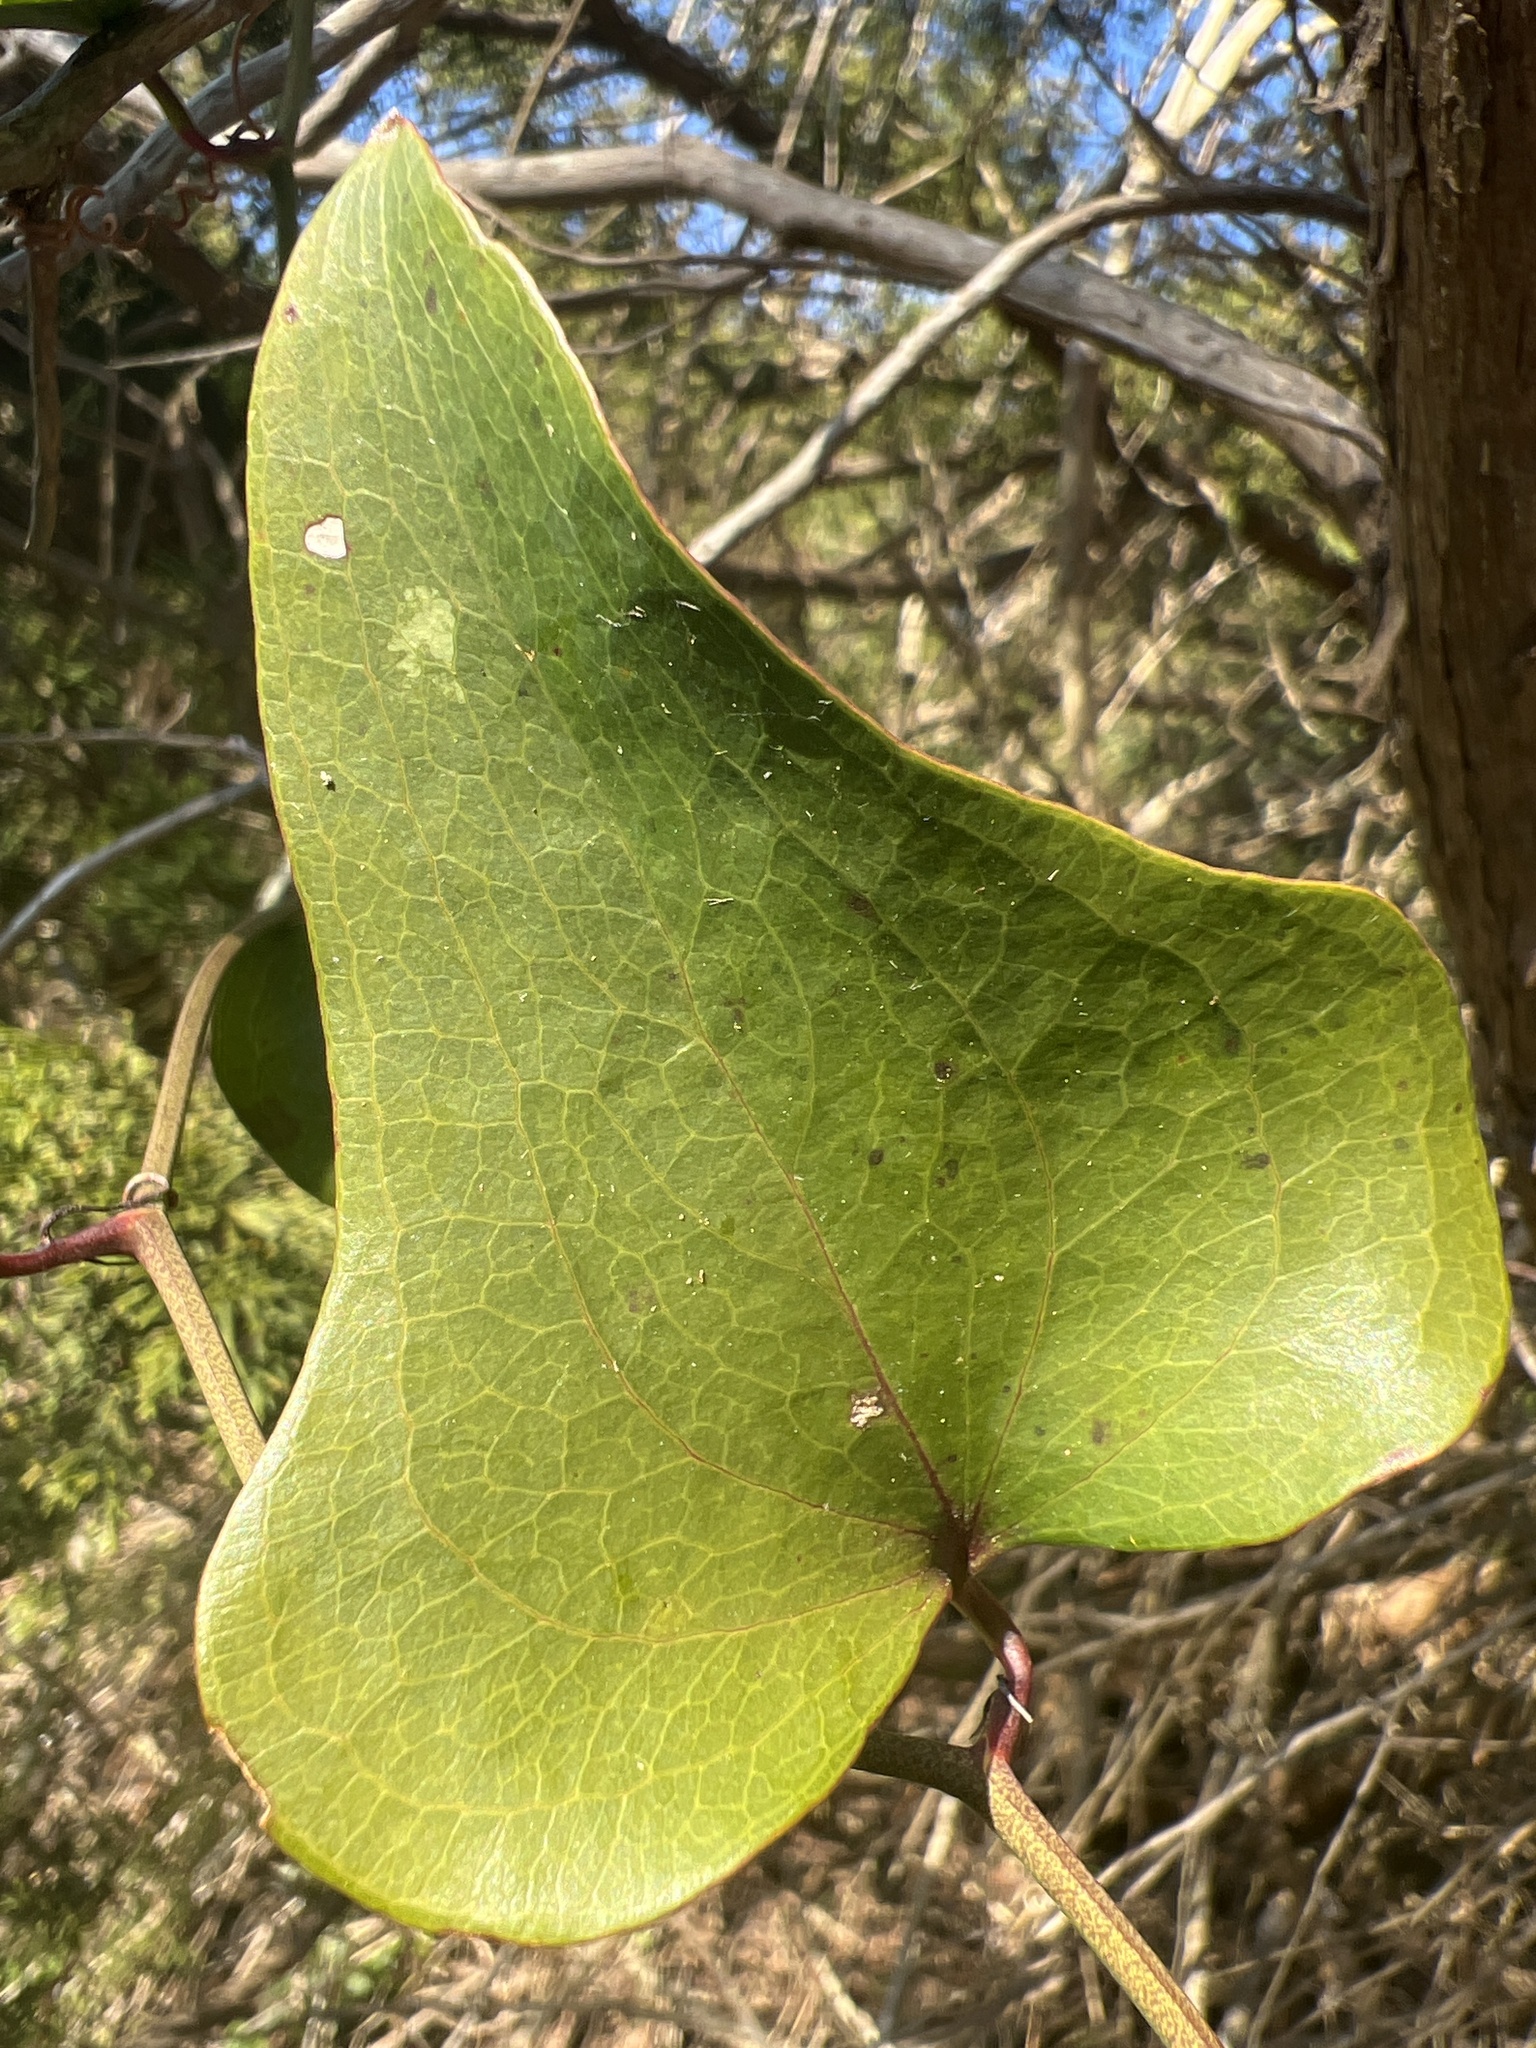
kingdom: Plantae
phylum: Tracheophyta
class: Liliopsida
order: Liliales
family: Smilacaceae
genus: Smilax
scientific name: Smilax bona-nox
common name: Catbrier
